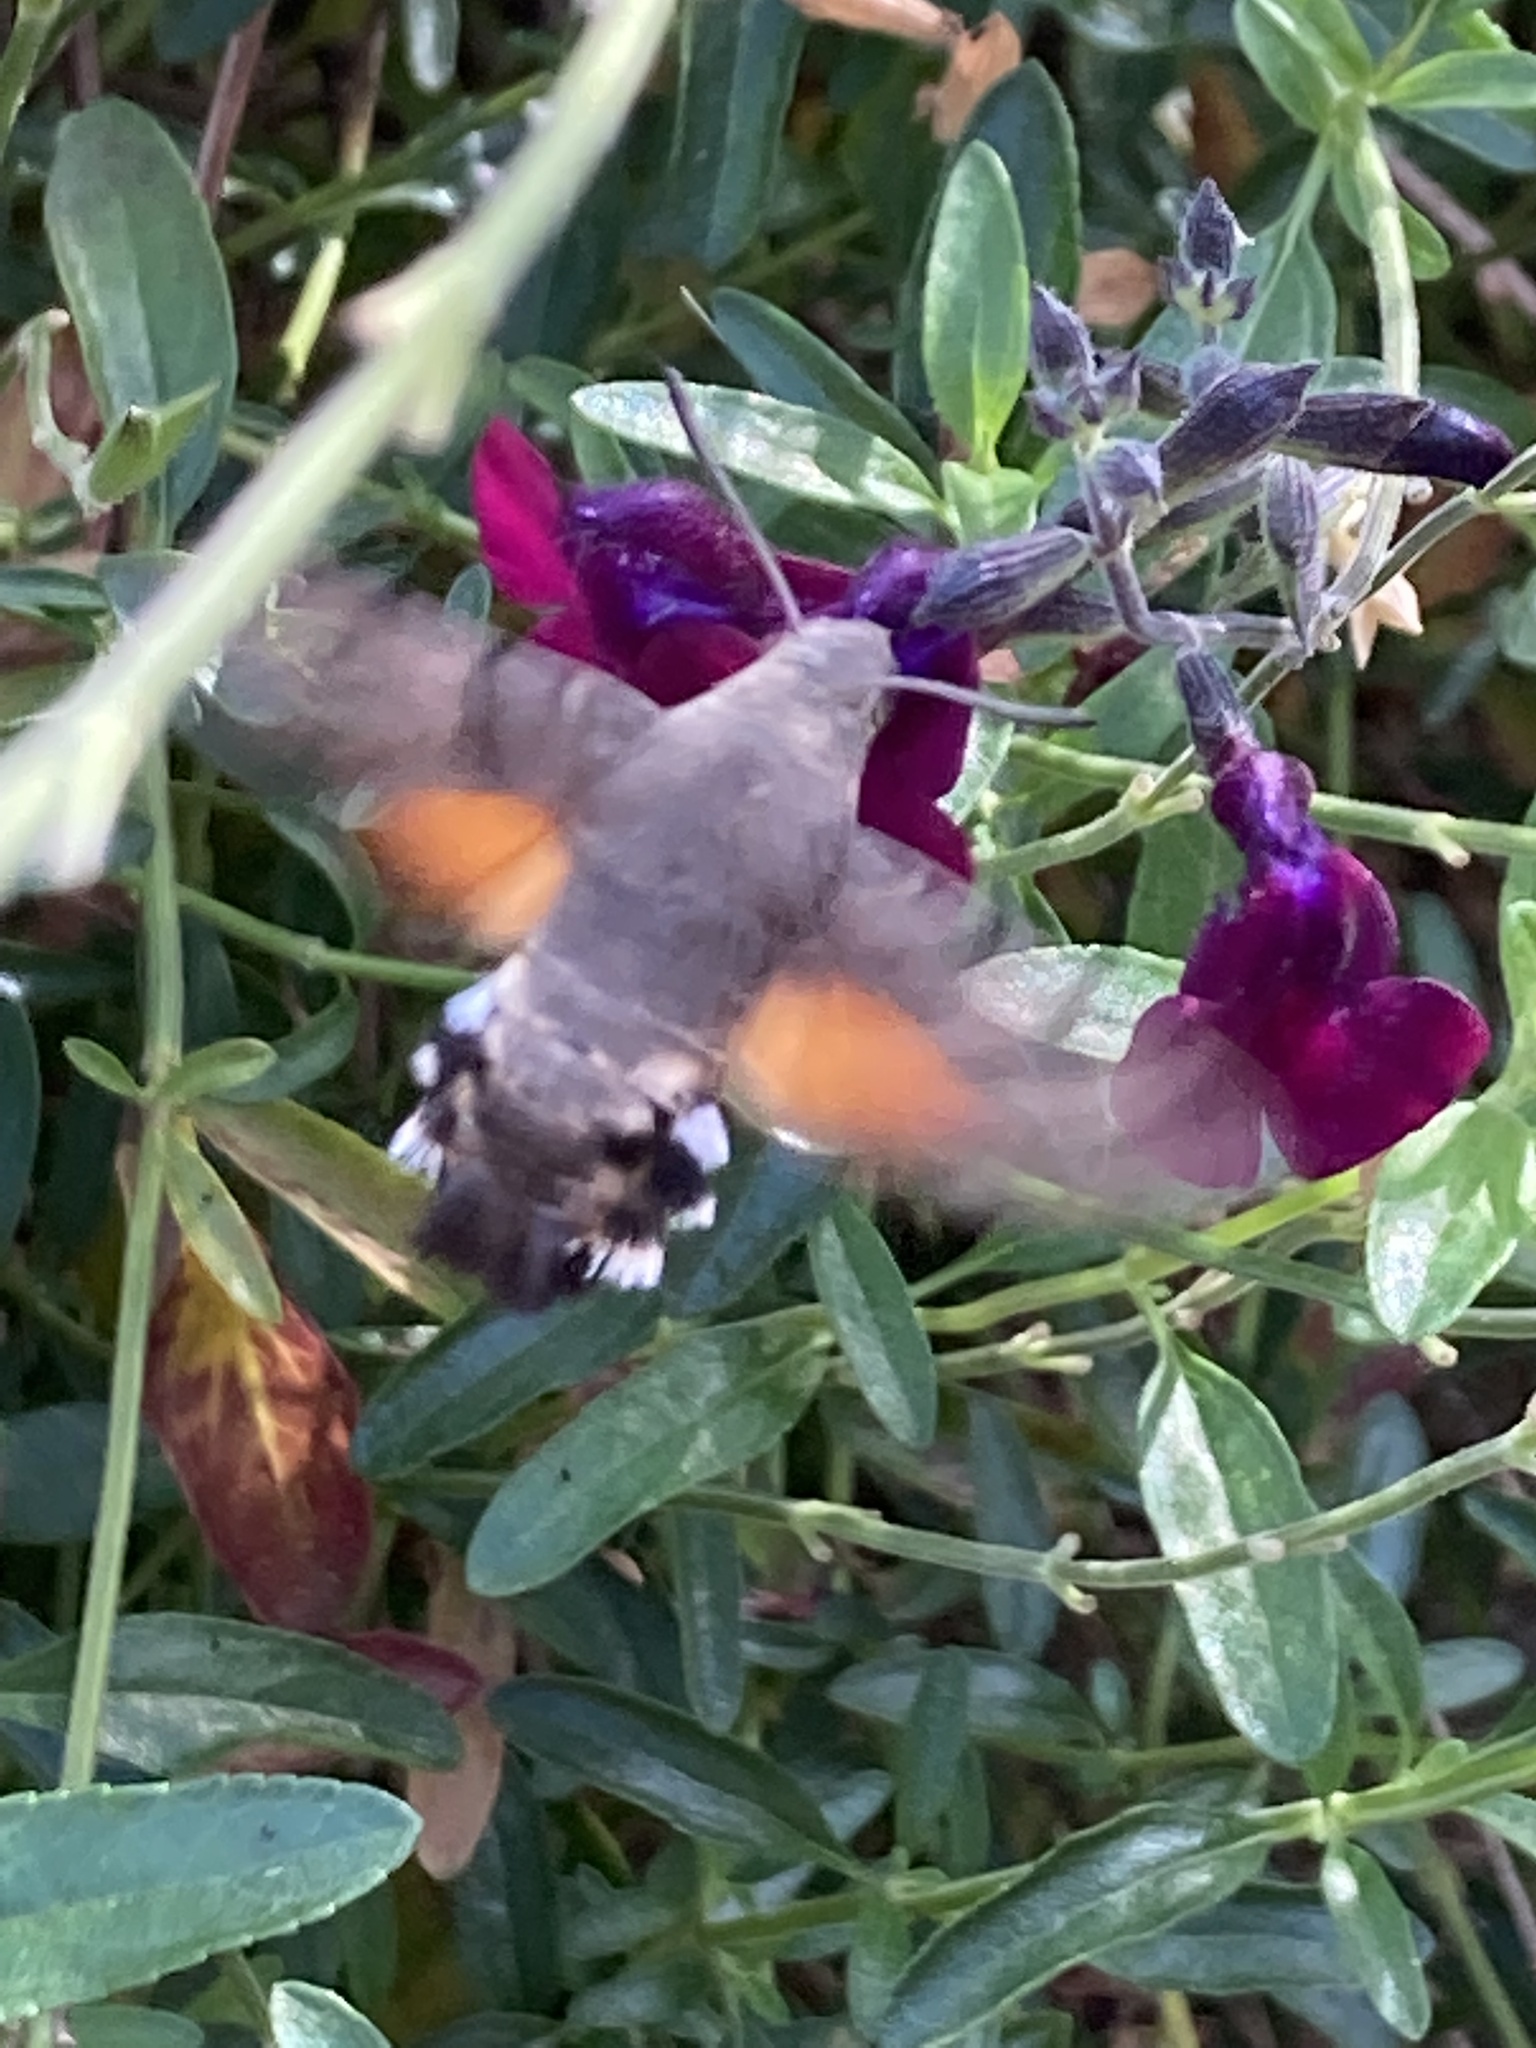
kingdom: Animalia
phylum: Arthropoda
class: Insecta
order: Lepidoptera
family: Sphingidae
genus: Macroglossum
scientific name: Macroglossum stellatarum
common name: Humming-bird hawk-moth
